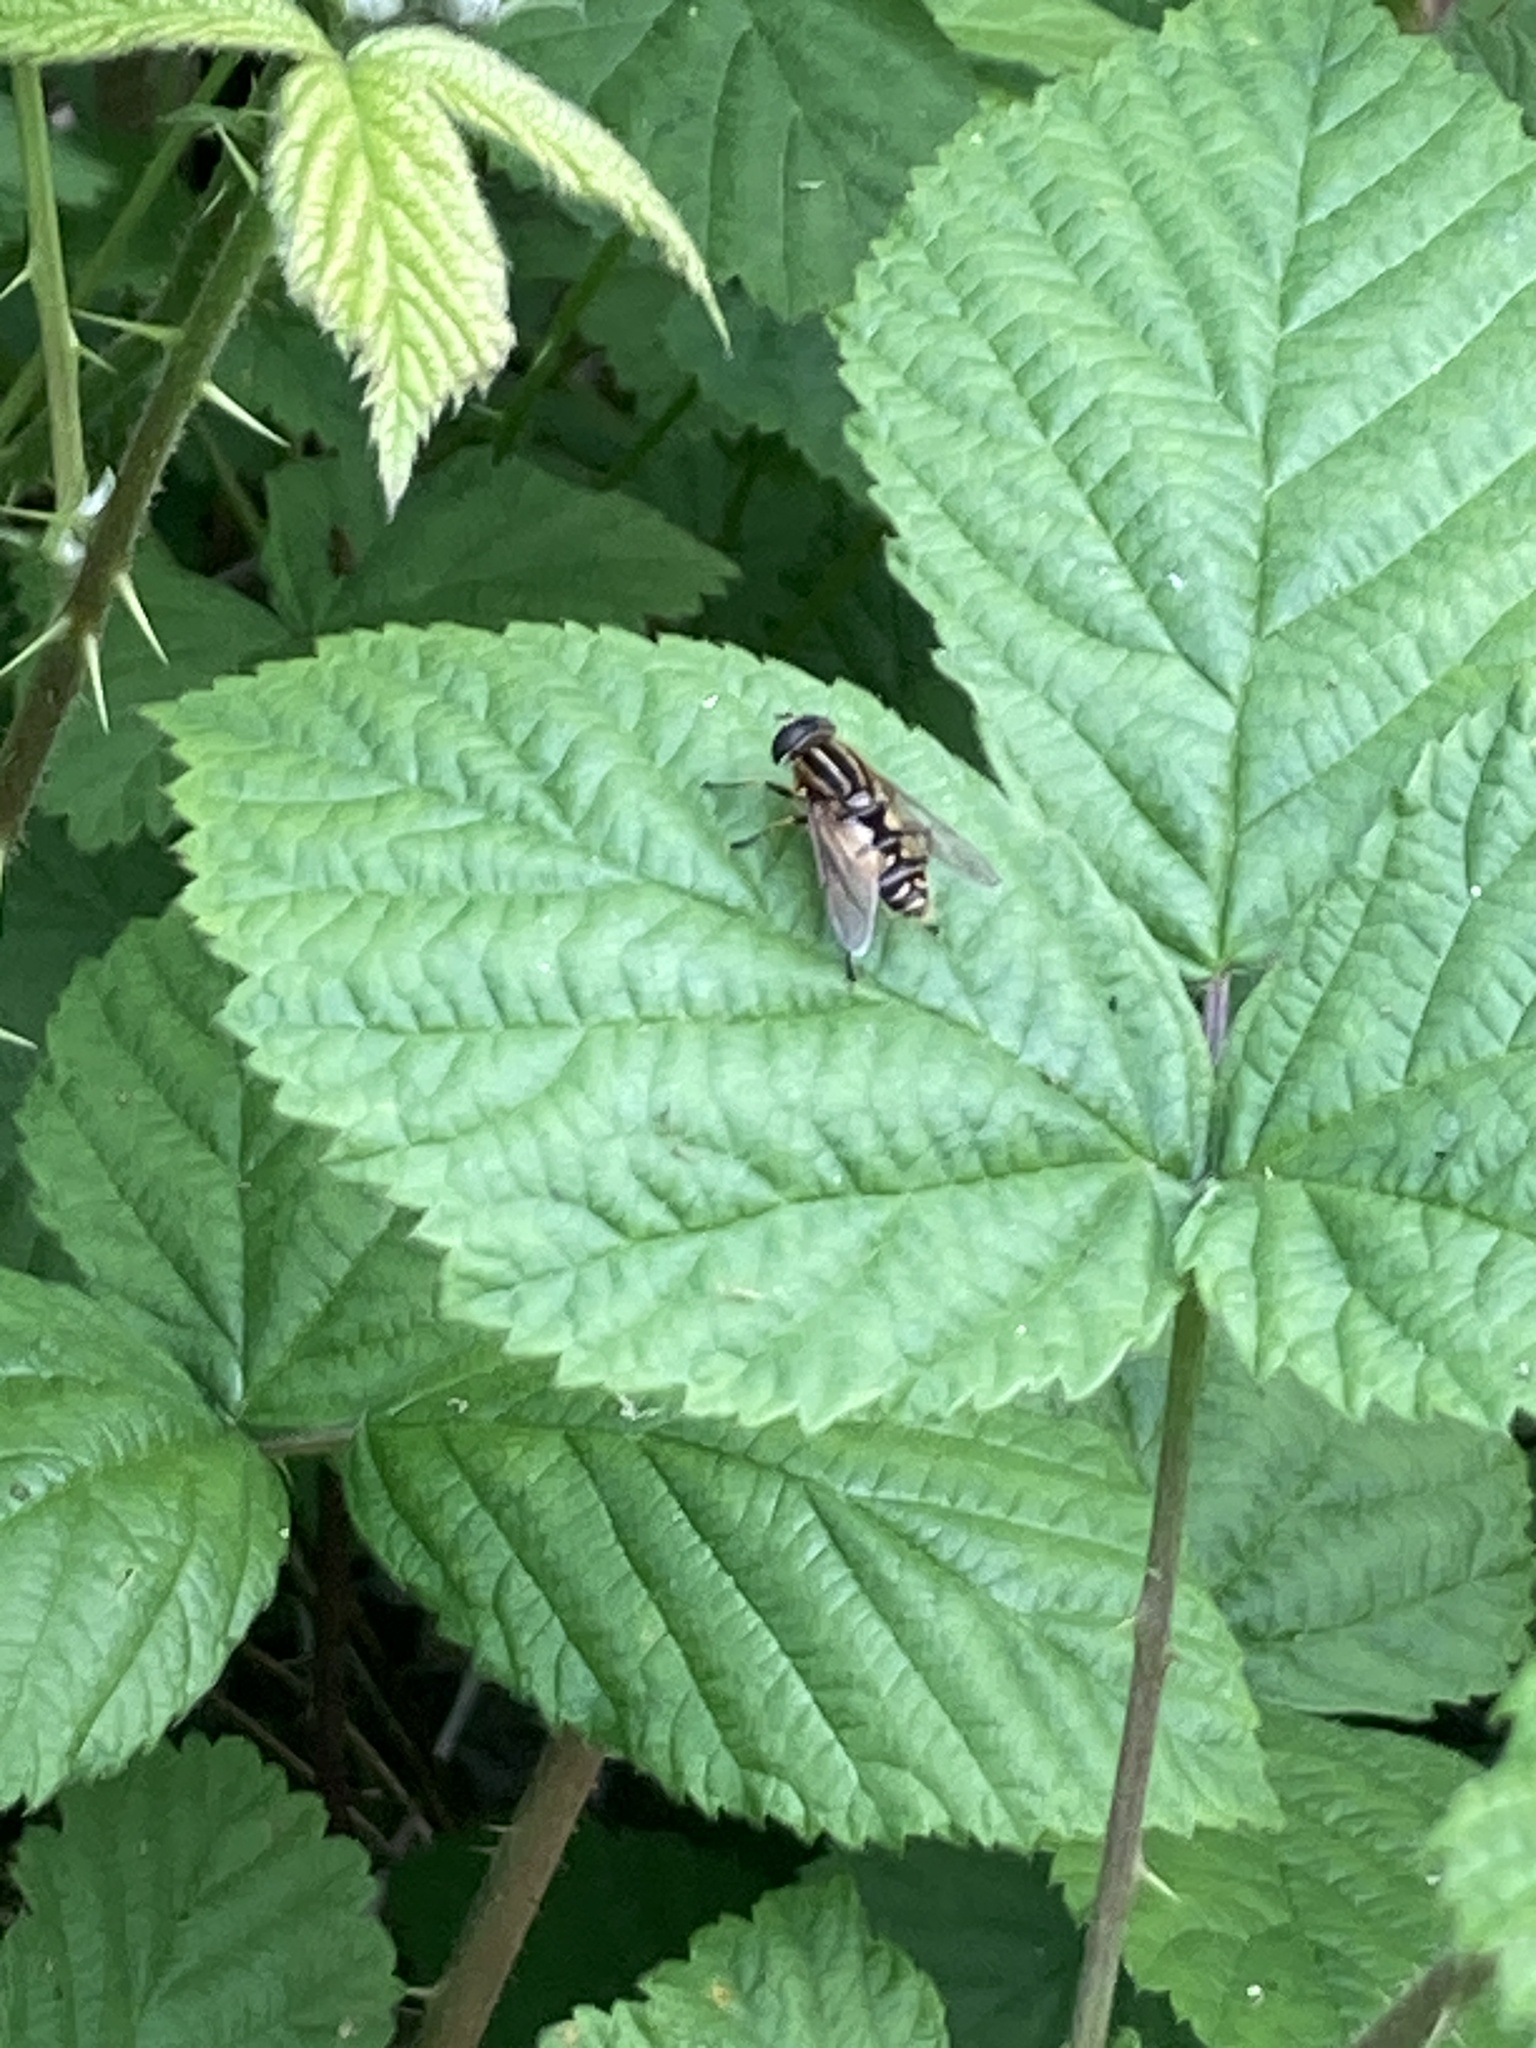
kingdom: Animalia
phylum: Arthropoda
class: Insecta
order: Diptera
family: Syrphidae
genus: Helophilus
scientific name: Helophilus pendulus
